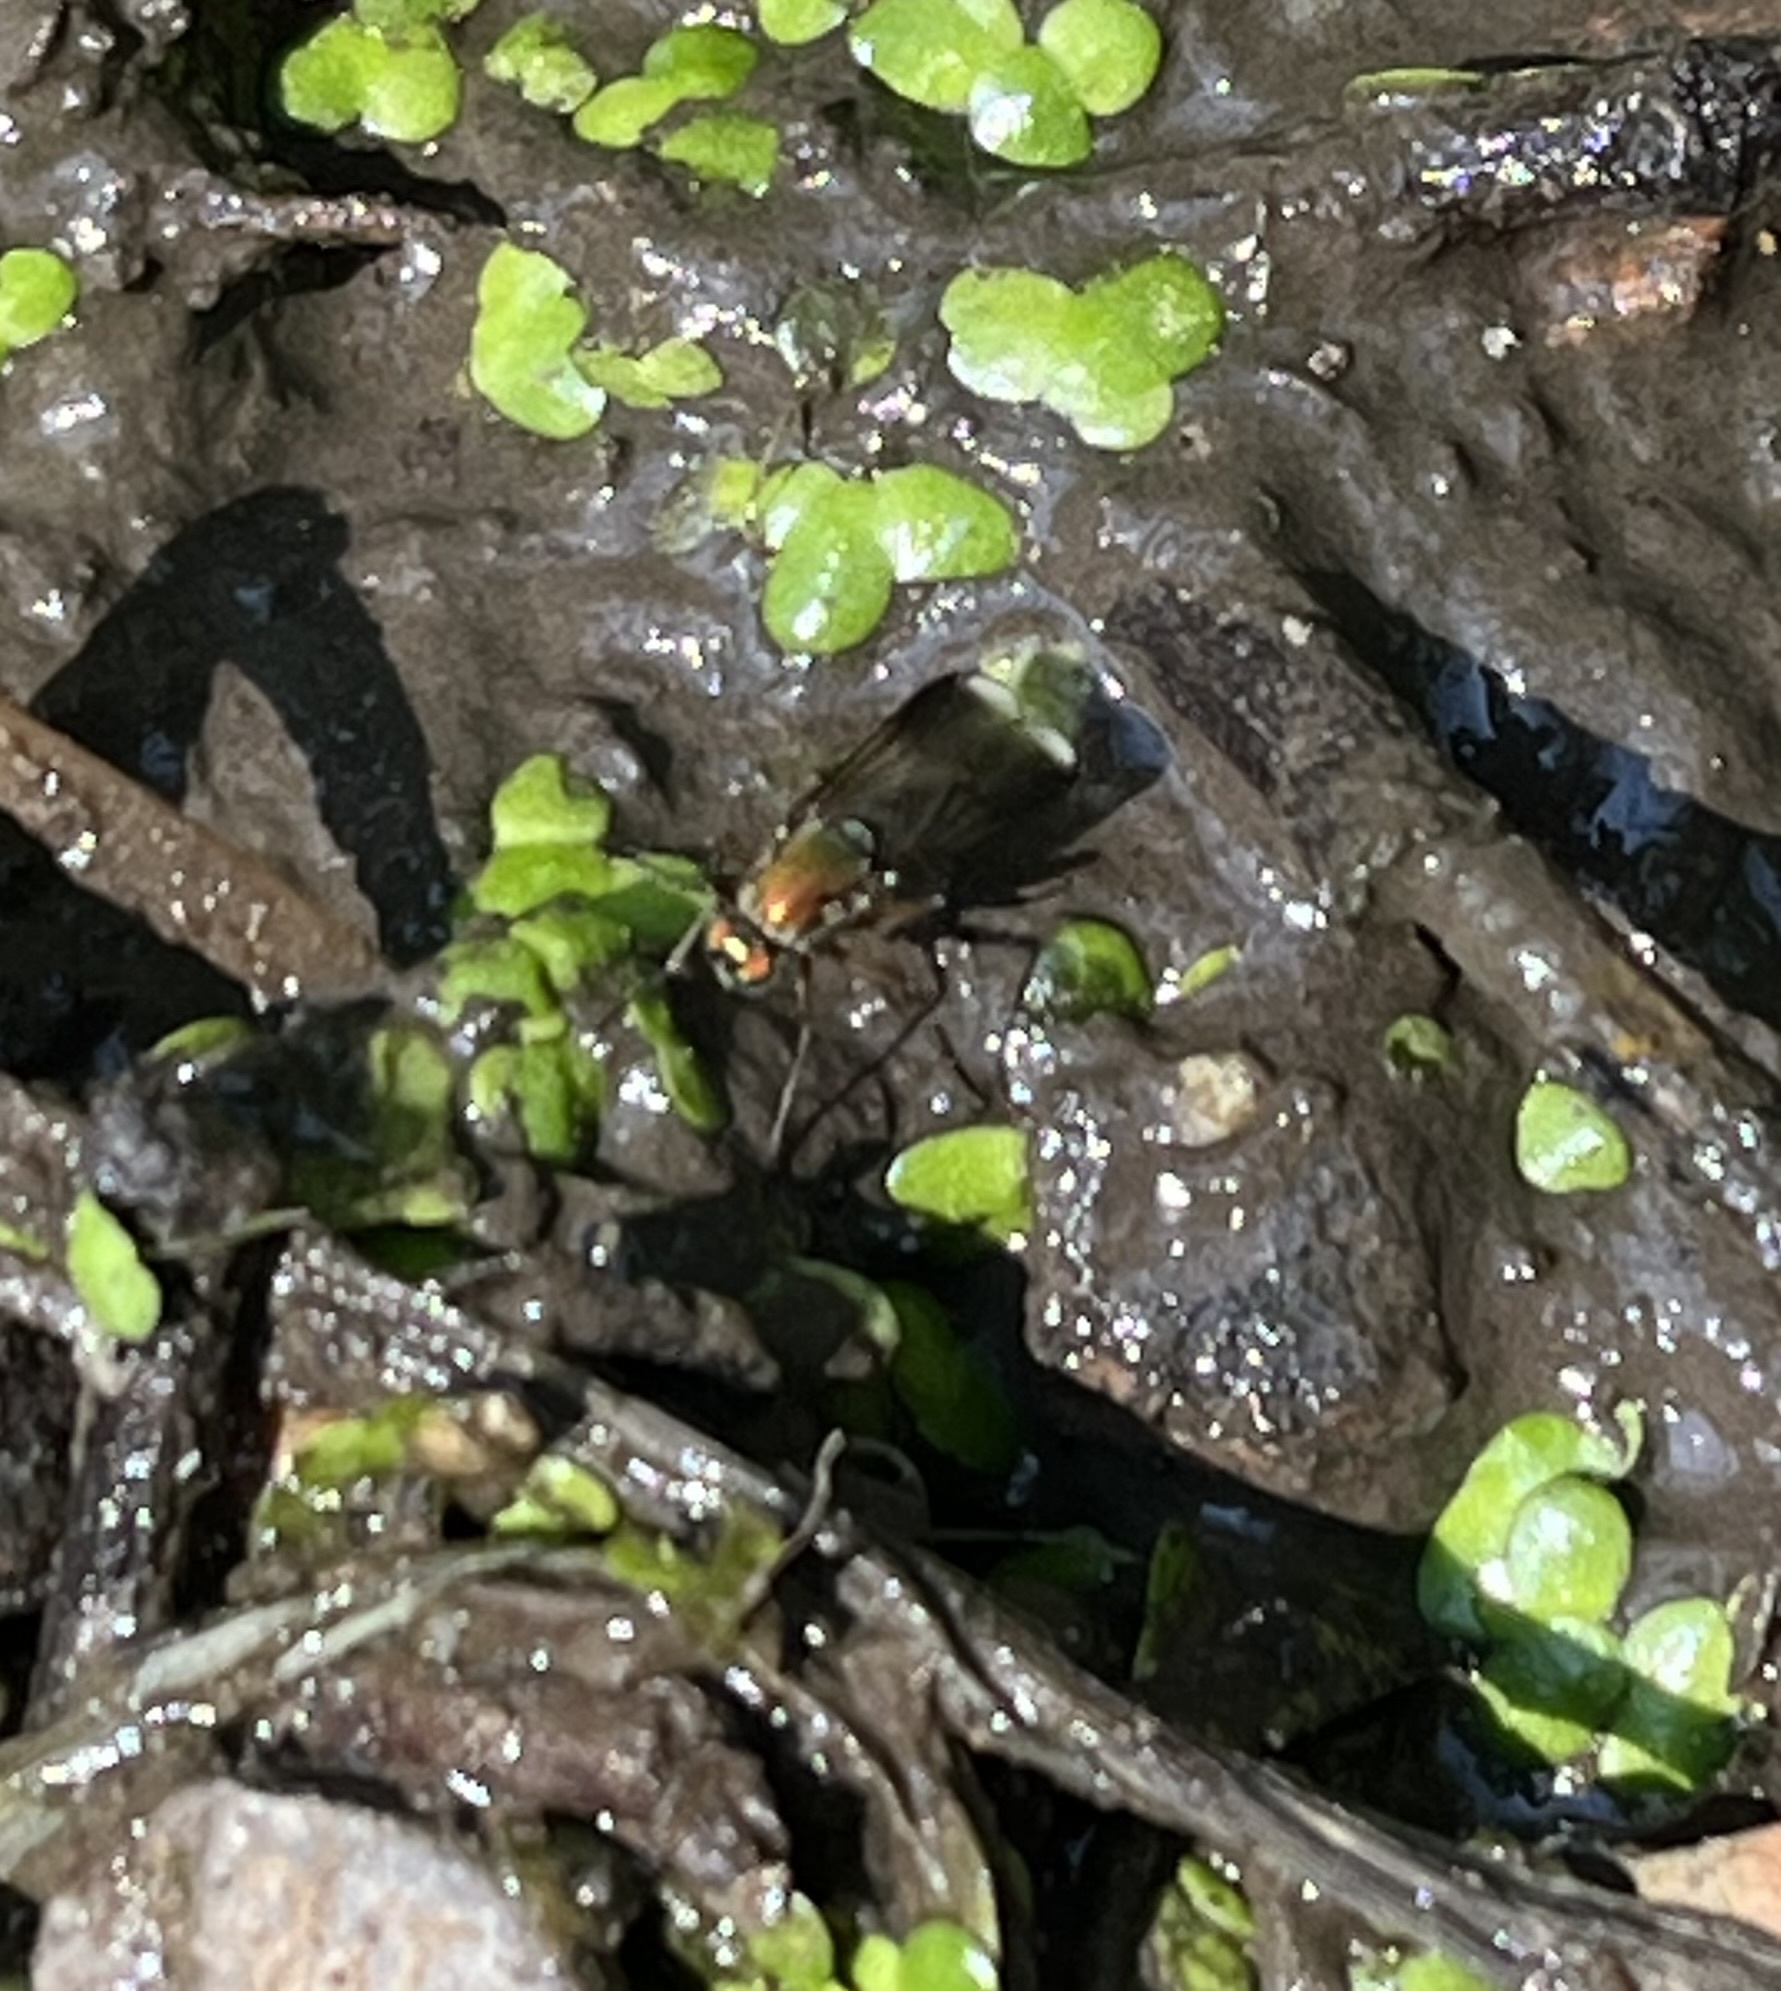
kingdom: Animalia
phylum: Arthropoda
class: Insecta
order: Diptera
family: Dolichopodidae
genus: Poecilobothrus
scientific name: Poecilobothrus nobilitatus
